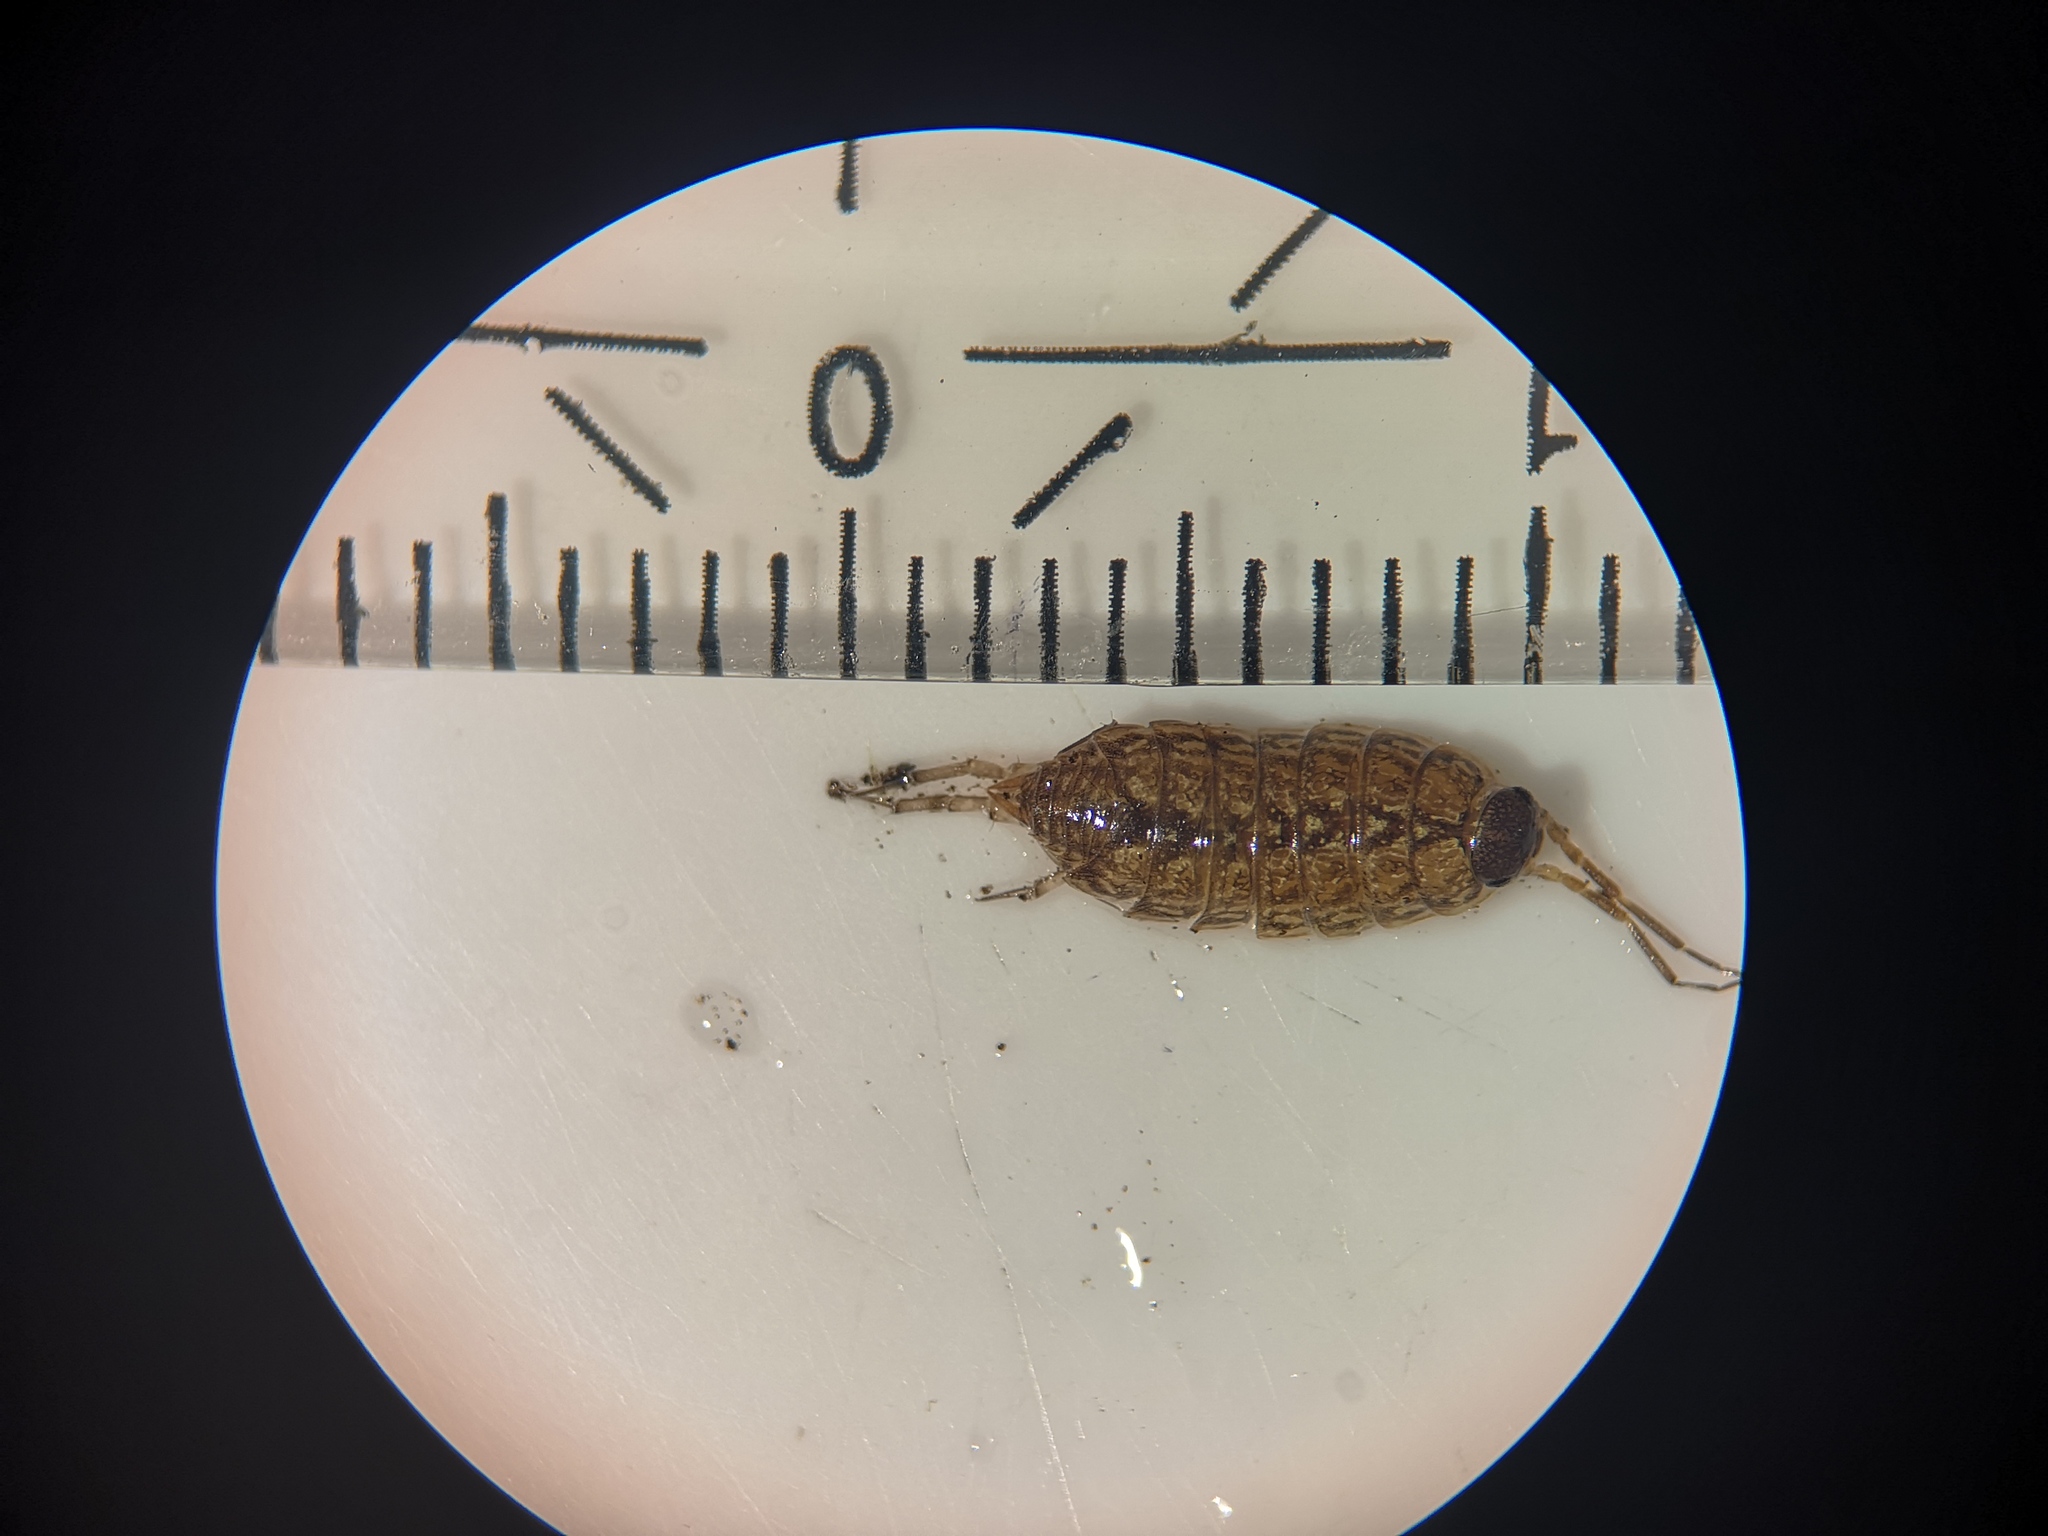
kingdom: Animalia
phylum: Arthropoda
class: Malacostraca
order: Isopoda
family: Philosciidae
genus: Philoscia
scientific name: Philoscia muscorum
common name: Common striped woodlouse
